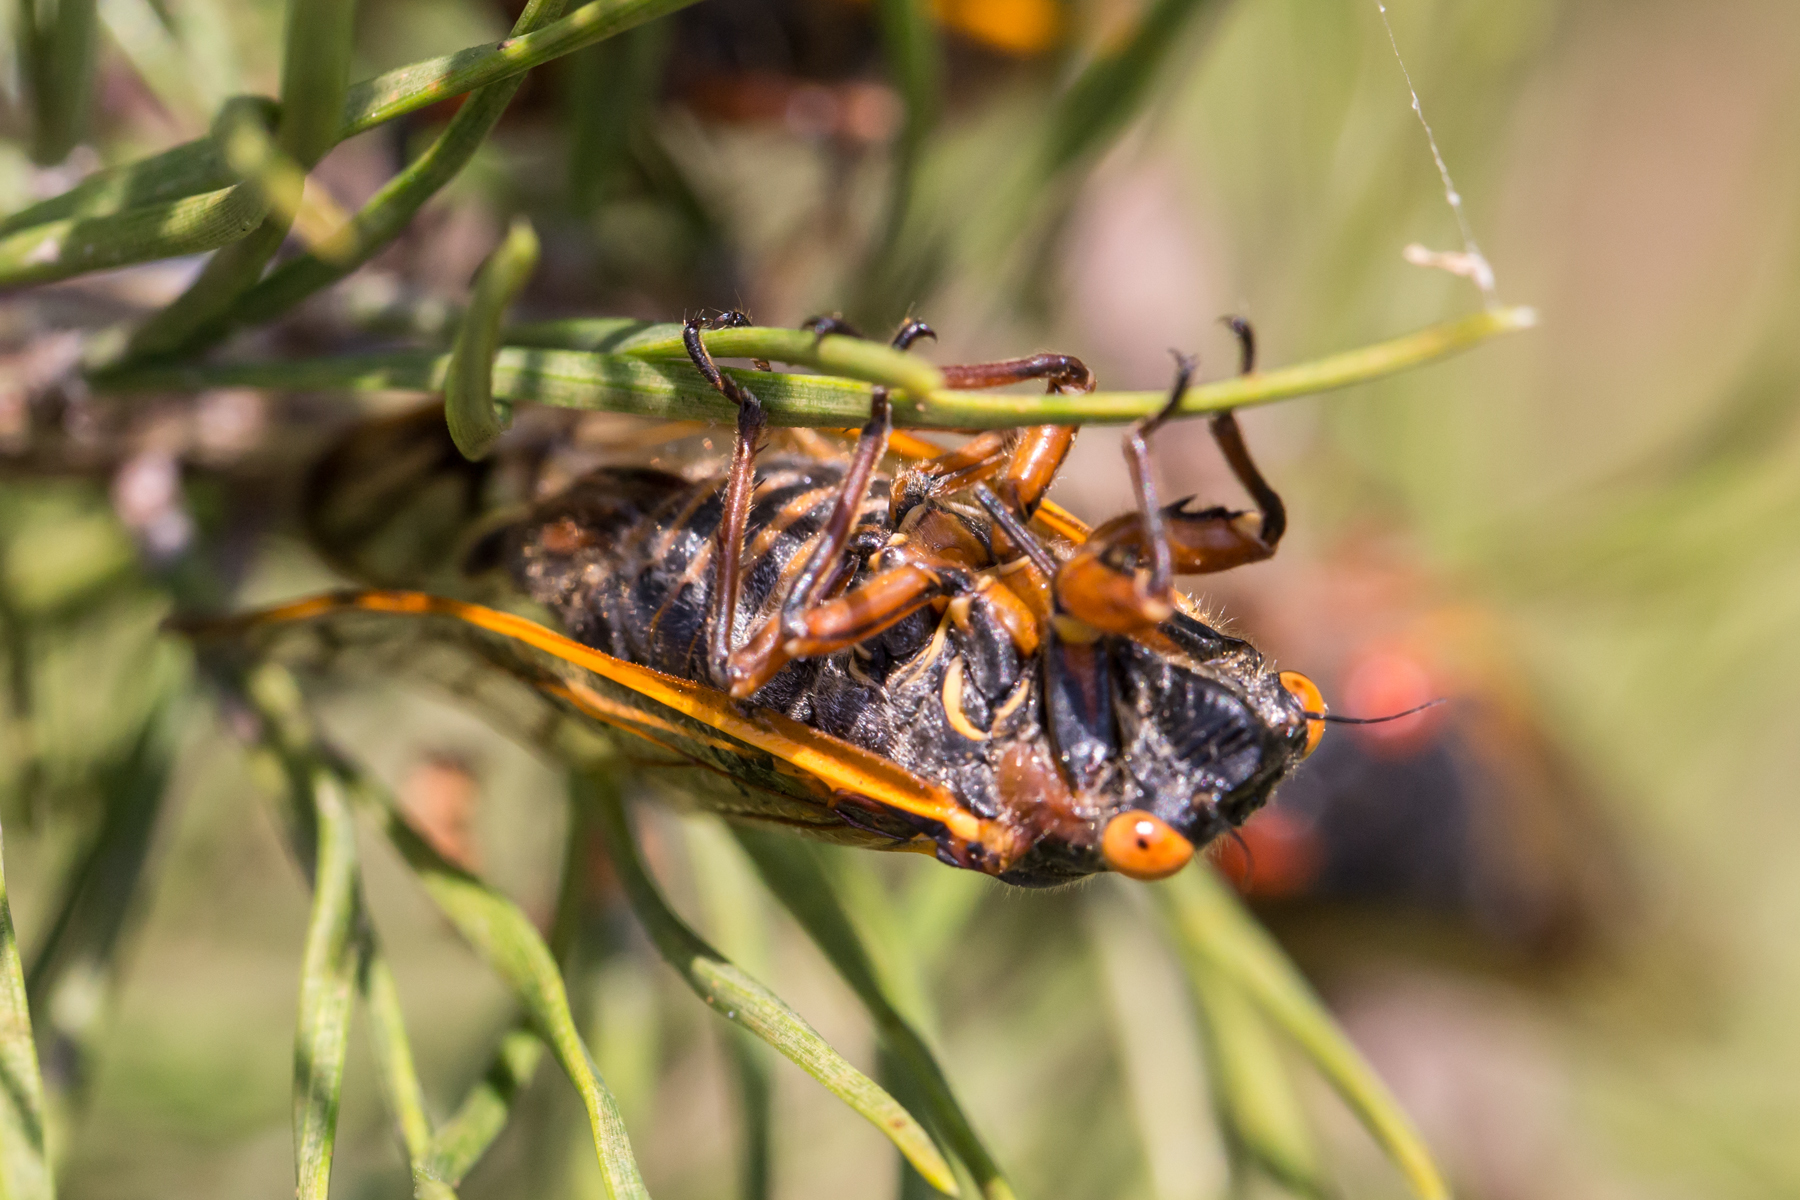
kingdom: Animalia
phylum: Arthropoda
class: Insecta
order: Hemiptera
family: Cicadidae
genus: Magicicada
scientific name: Magicicada septendecim
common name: Periodical cicada
